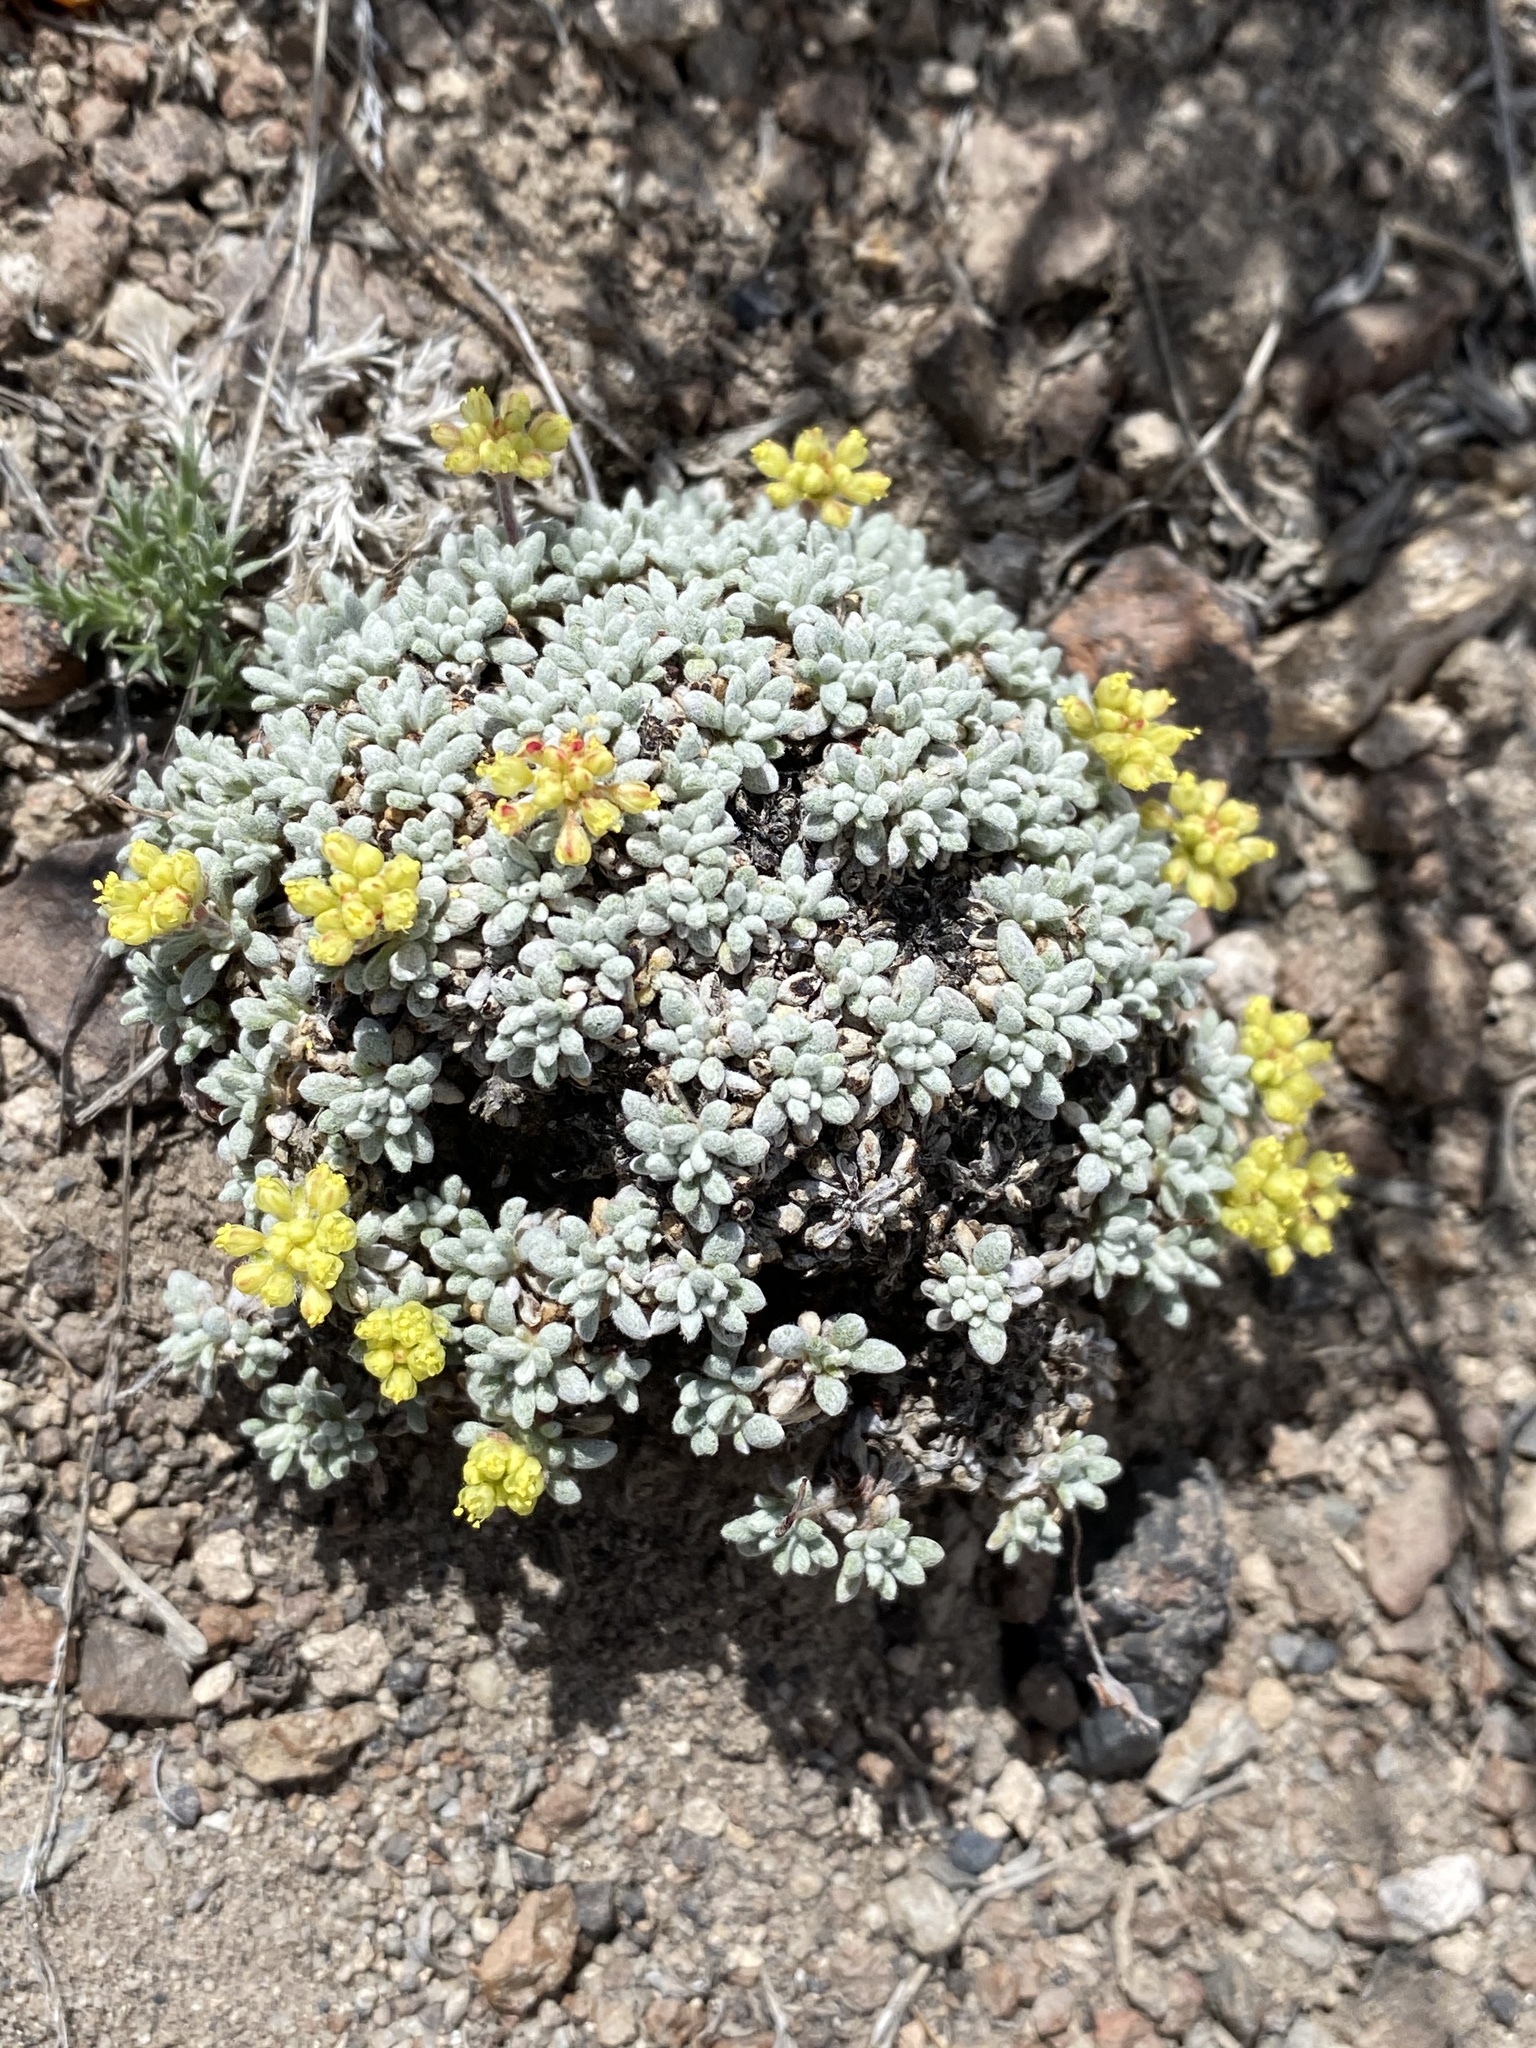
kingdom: Plantae
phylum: Tracheophyta
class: Magnoliopsida
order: Caryophyllales
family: Polygonaceae
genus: Eriogonum
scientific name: Eriogonum caespitosum
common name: Matted wild buckwheat
